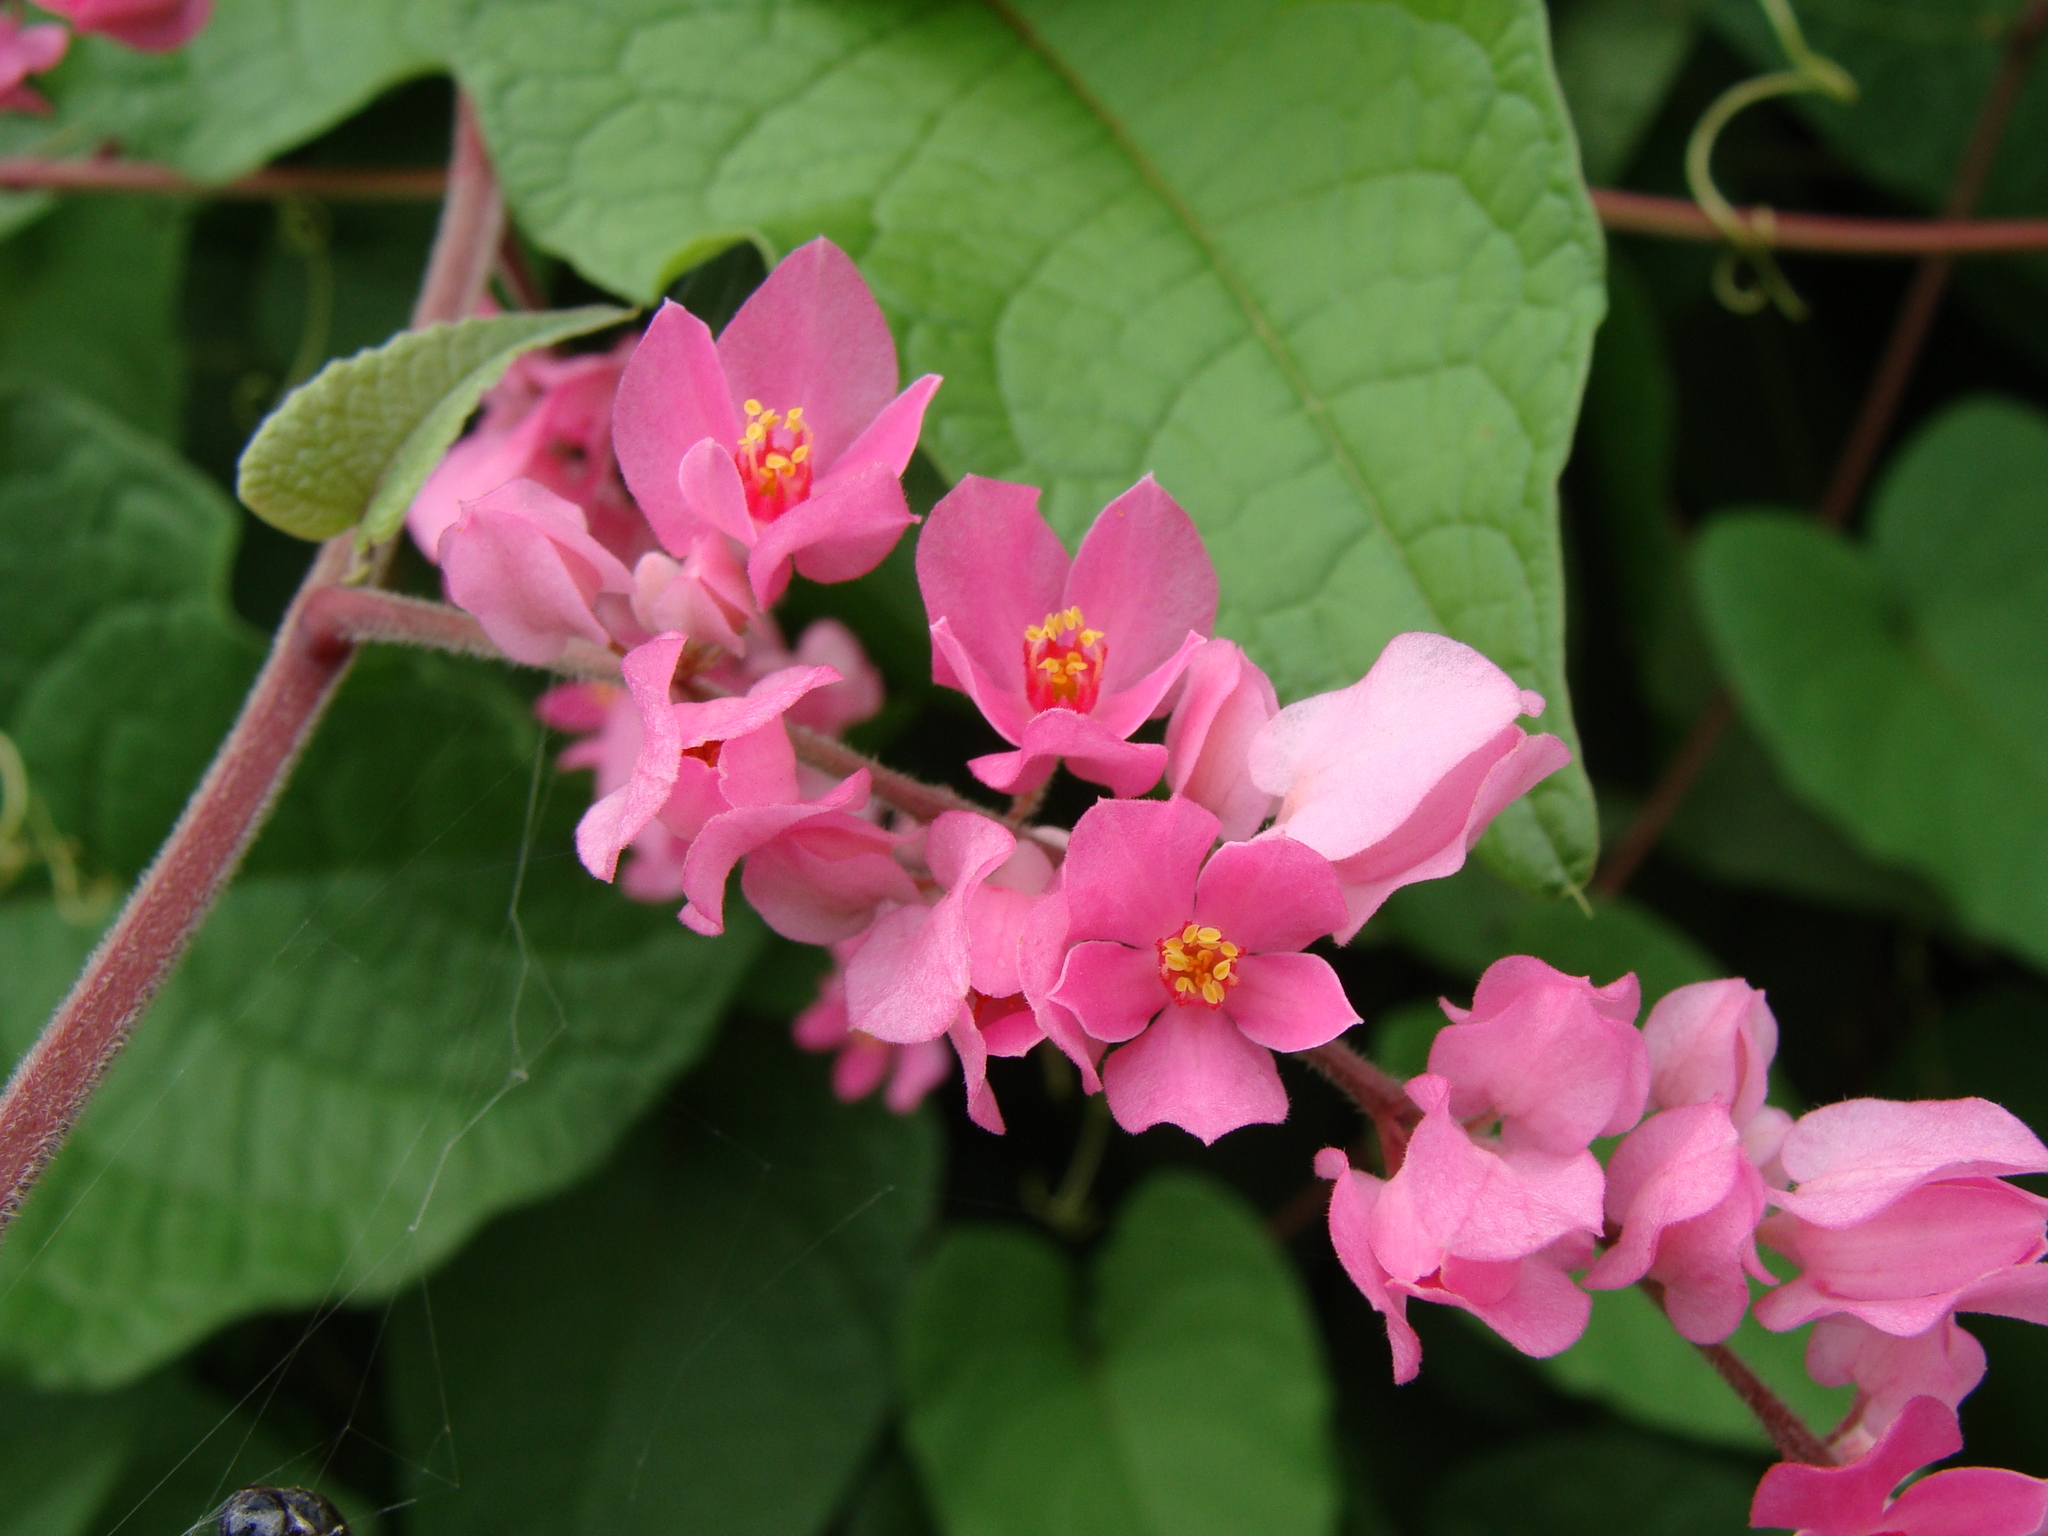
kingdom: Plantae
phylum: Tracheophyta
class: Magnoliopsida
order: Caryophyllales
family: Polygonaceae
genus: Antigonon
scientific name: Antigonon leptopus
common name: Coral vine
